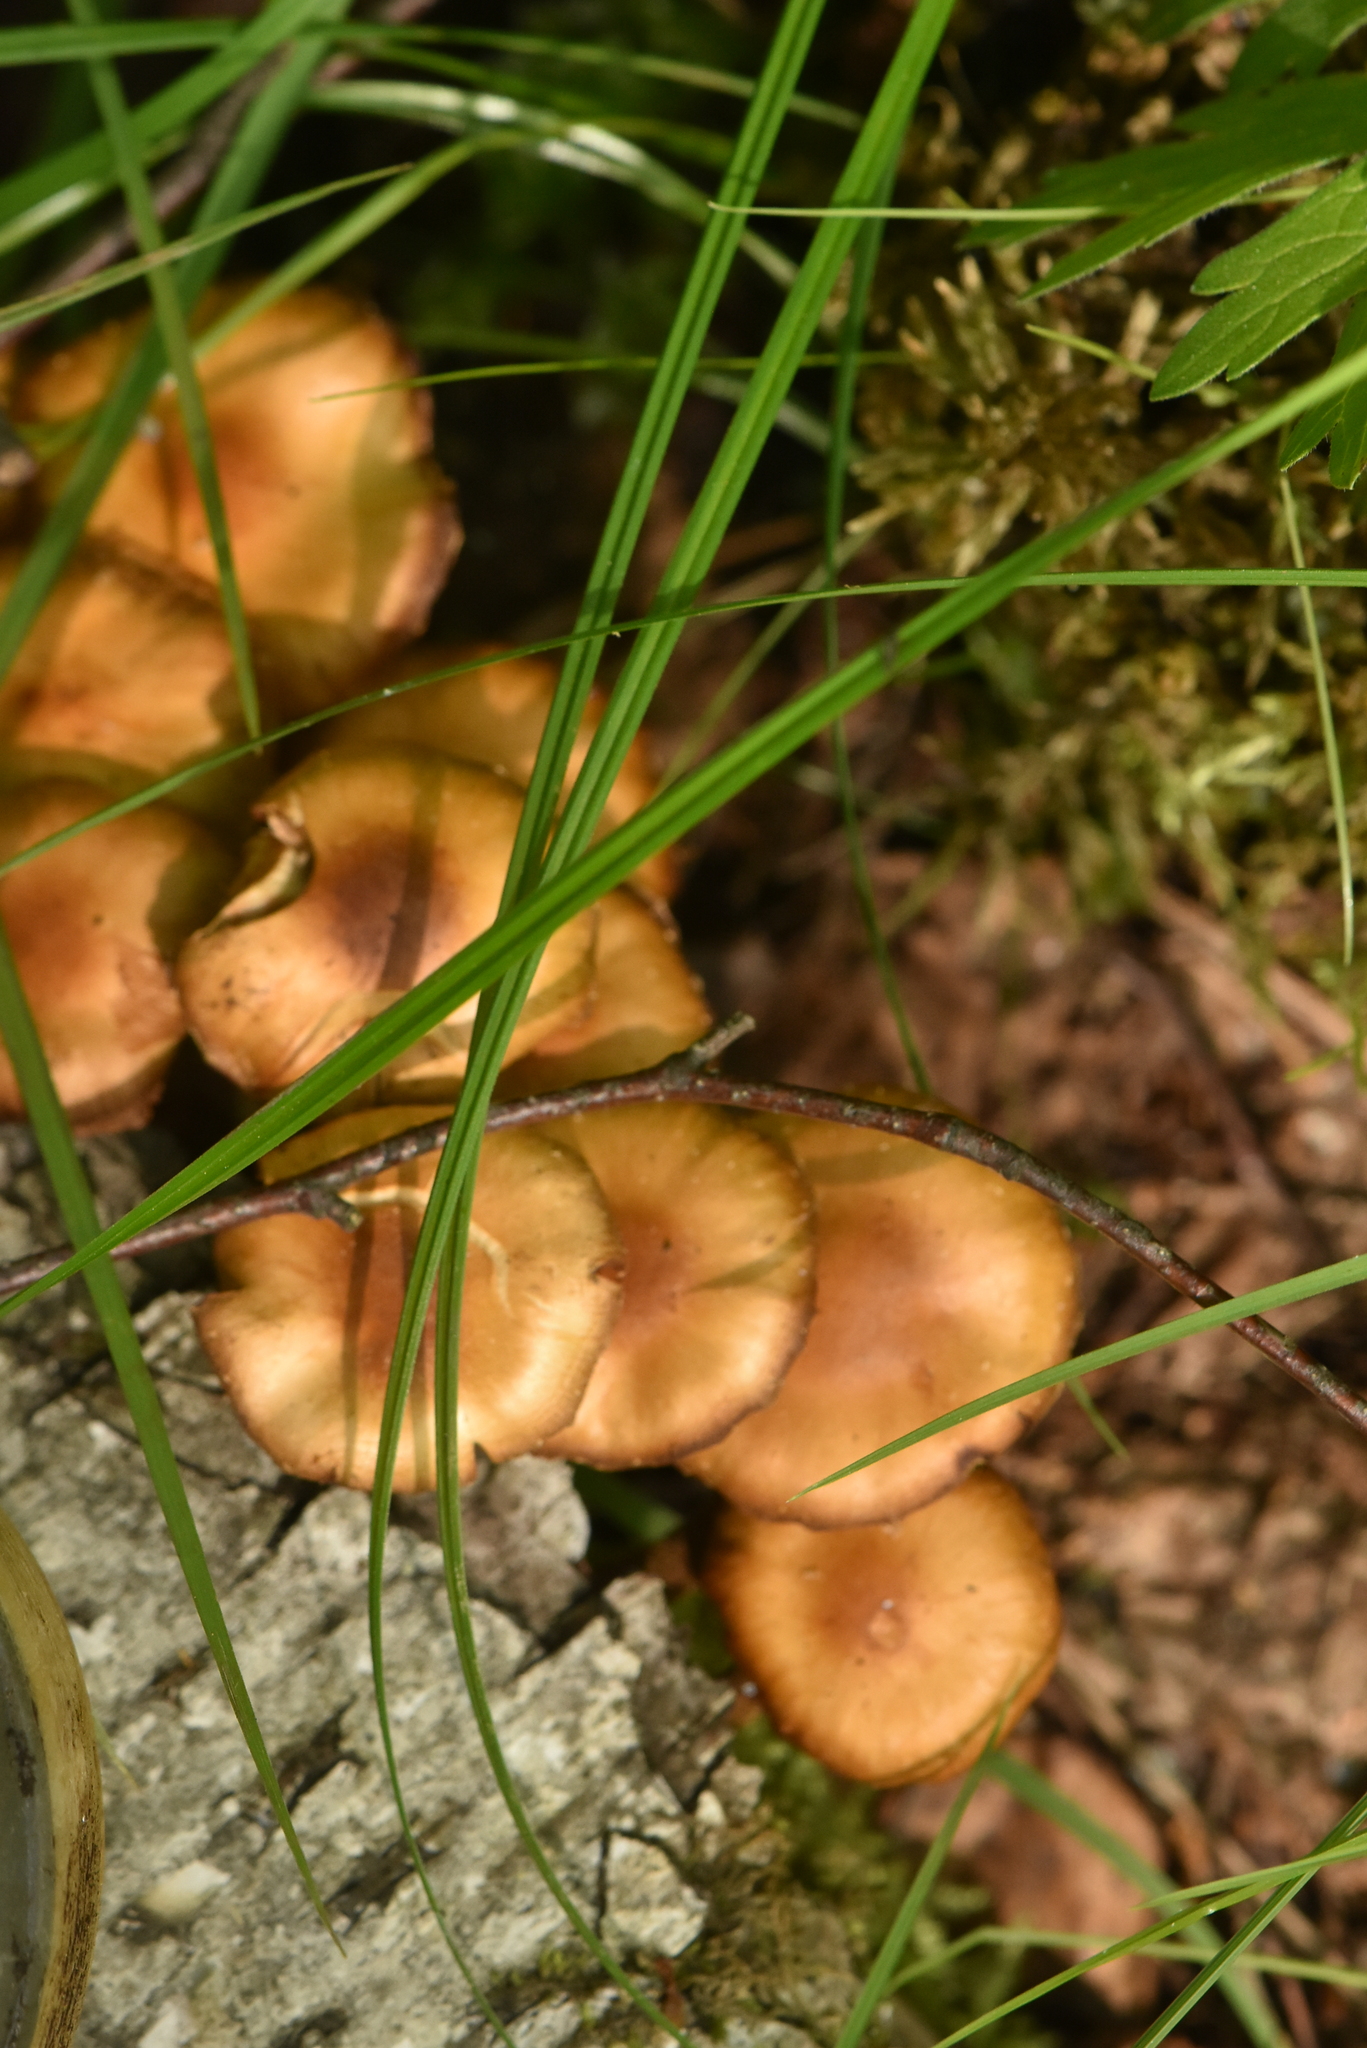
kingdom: Fungi
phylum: Basidiomycota
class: Agaricomycetes
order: Agaricales
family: Strophariaceae
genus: Kuehneromyces
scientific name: Kuehneromyces mutabilis
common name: Sheathed woodtuft
